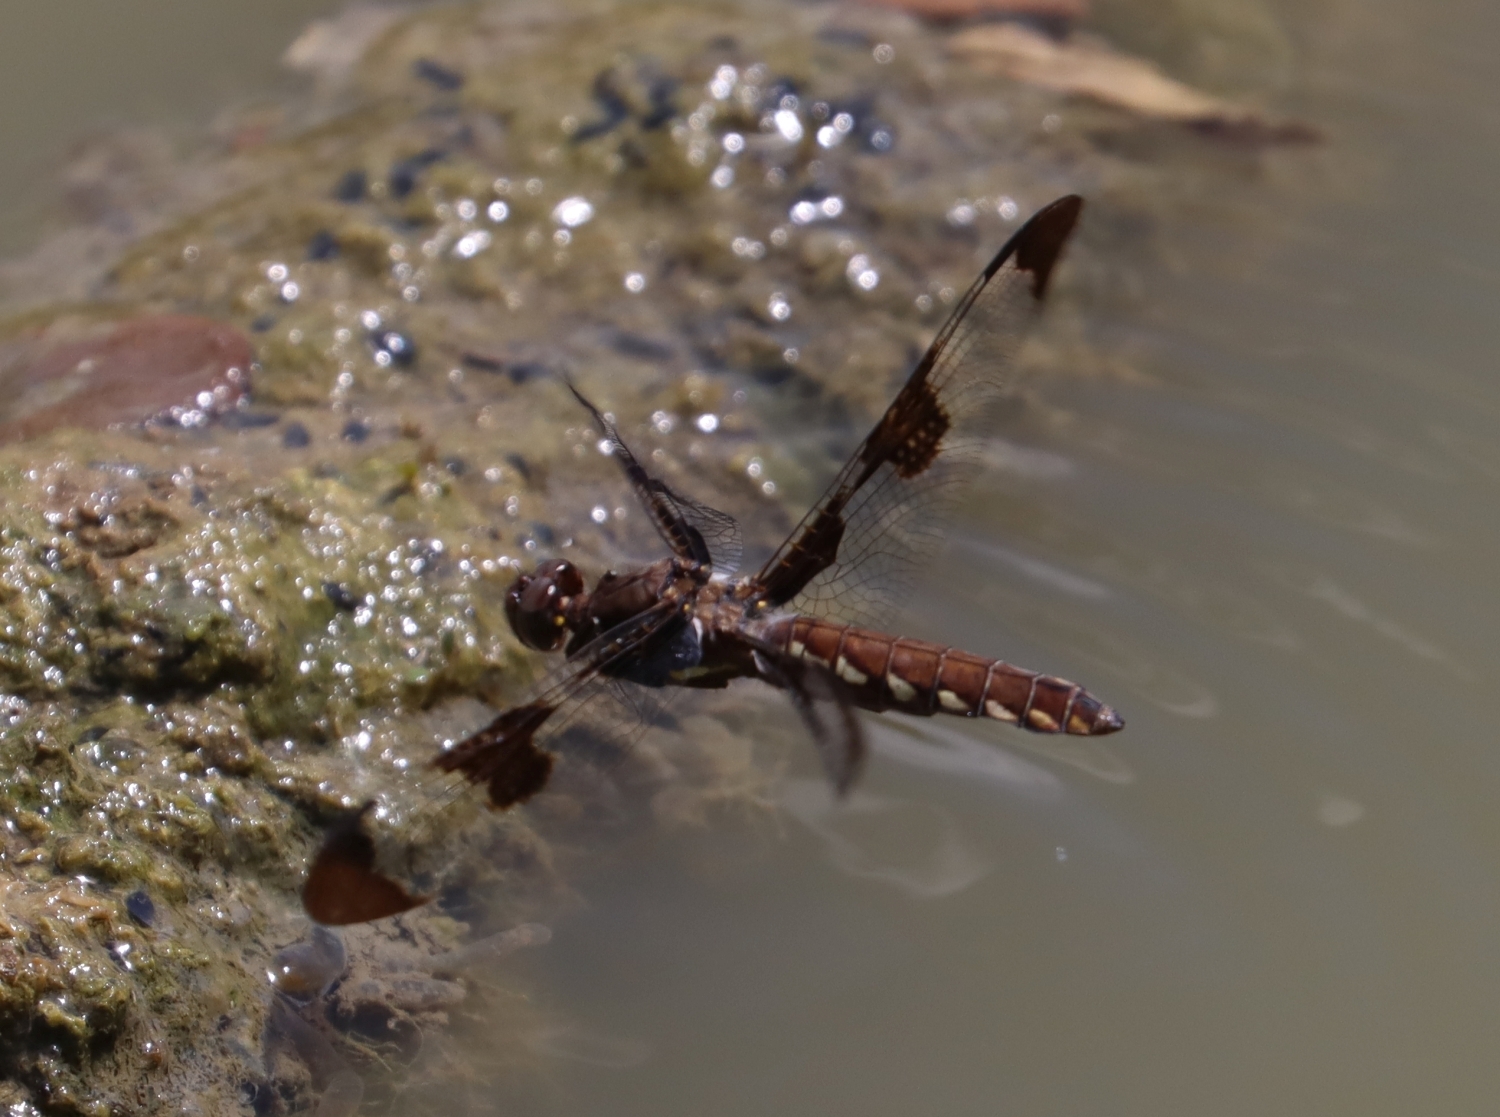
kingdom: Animalia
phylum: Arthropoda
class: Insecta
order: Odonata
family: Libellulidae
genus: Plathemis
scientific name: Plathemis lydia
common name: Common whitetail
